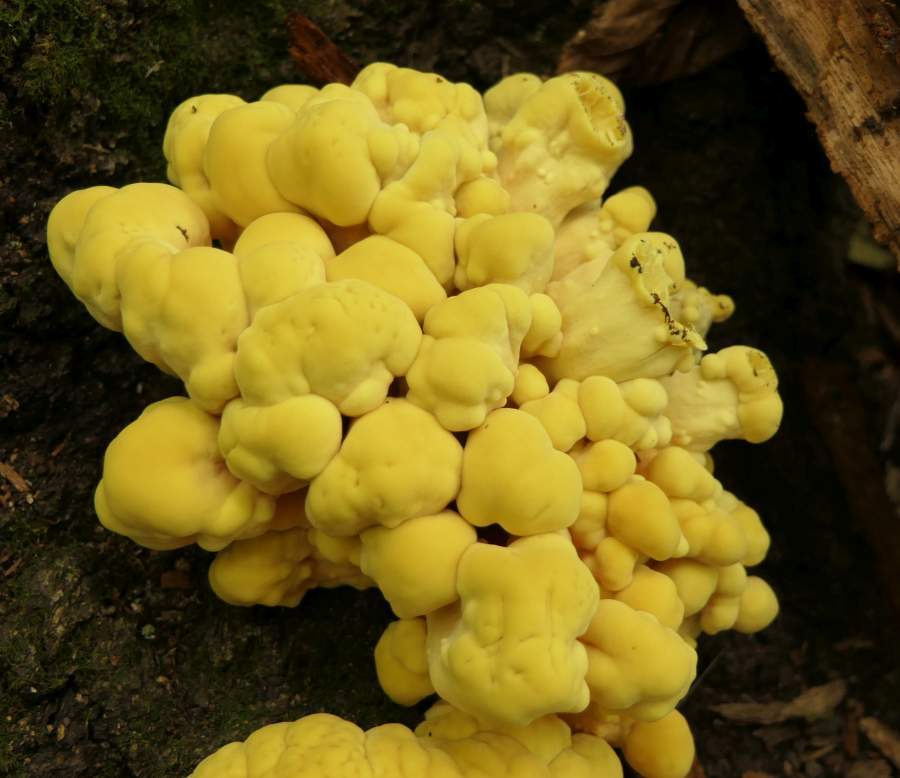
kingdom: Fungi
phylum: Basidiomycota
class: Agaricomycetes
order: Polyporales
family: Laetiporaceae
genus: Laetiporus
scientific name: Laetiporus sulphureus
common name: Chicken of the woods
